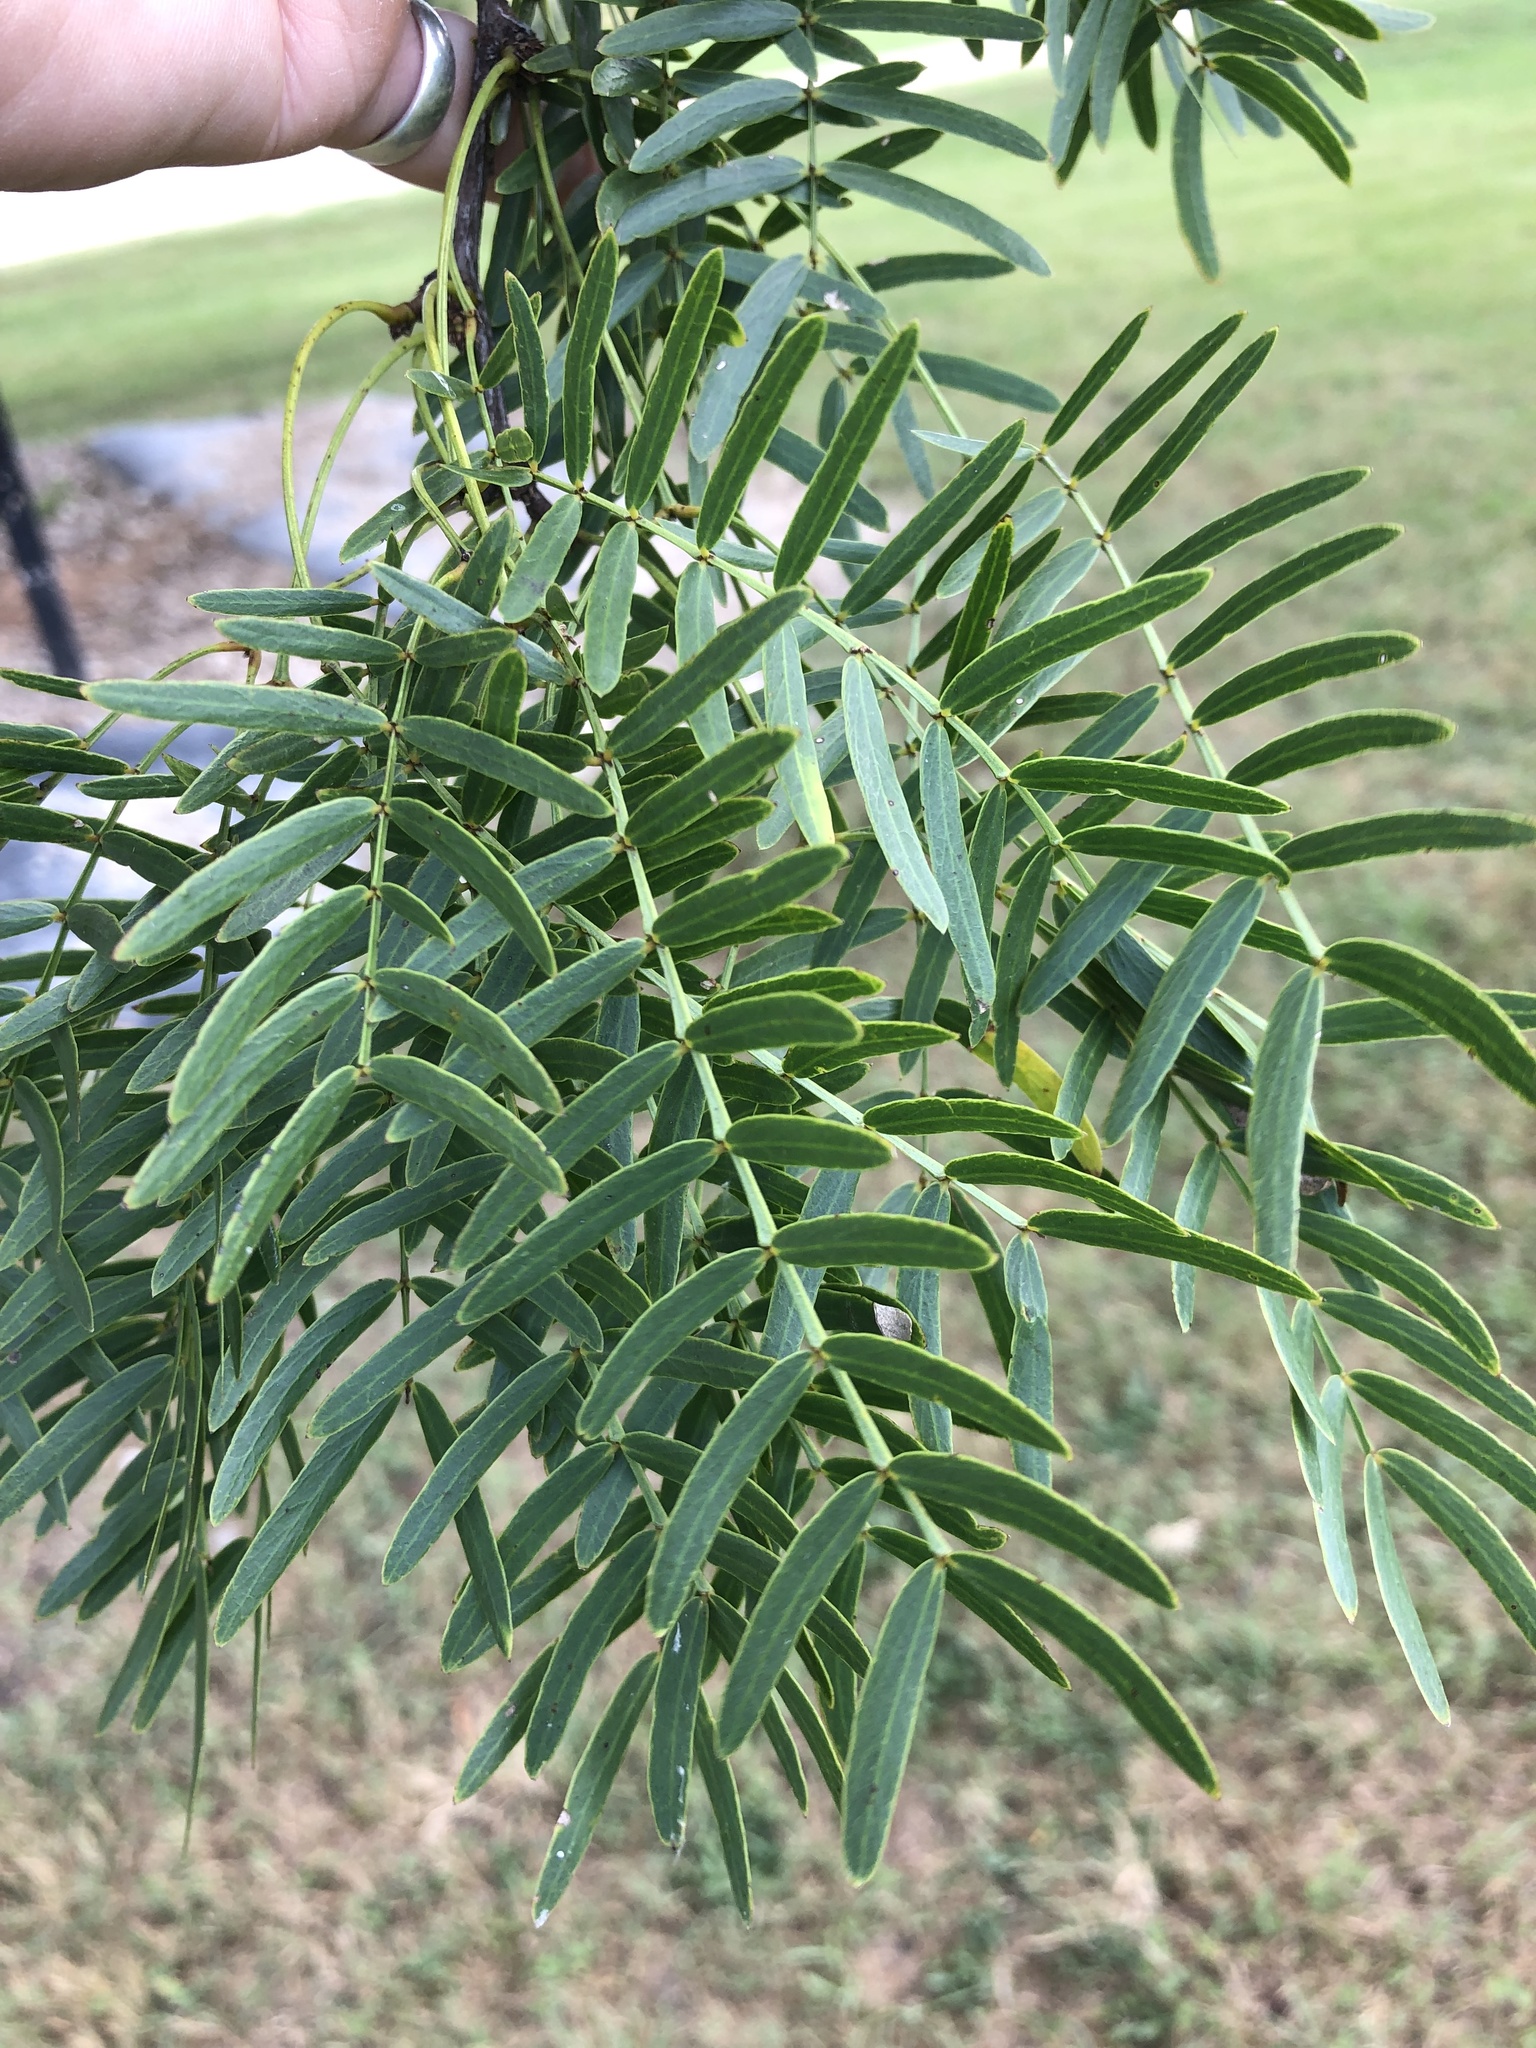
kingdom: Plantae
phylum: Tracheophyta
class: Magnoliopsida
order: Fabales
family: Fabaceae
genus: Prosopis
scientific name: Prosopis glandulosa
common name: Honey mesquite
